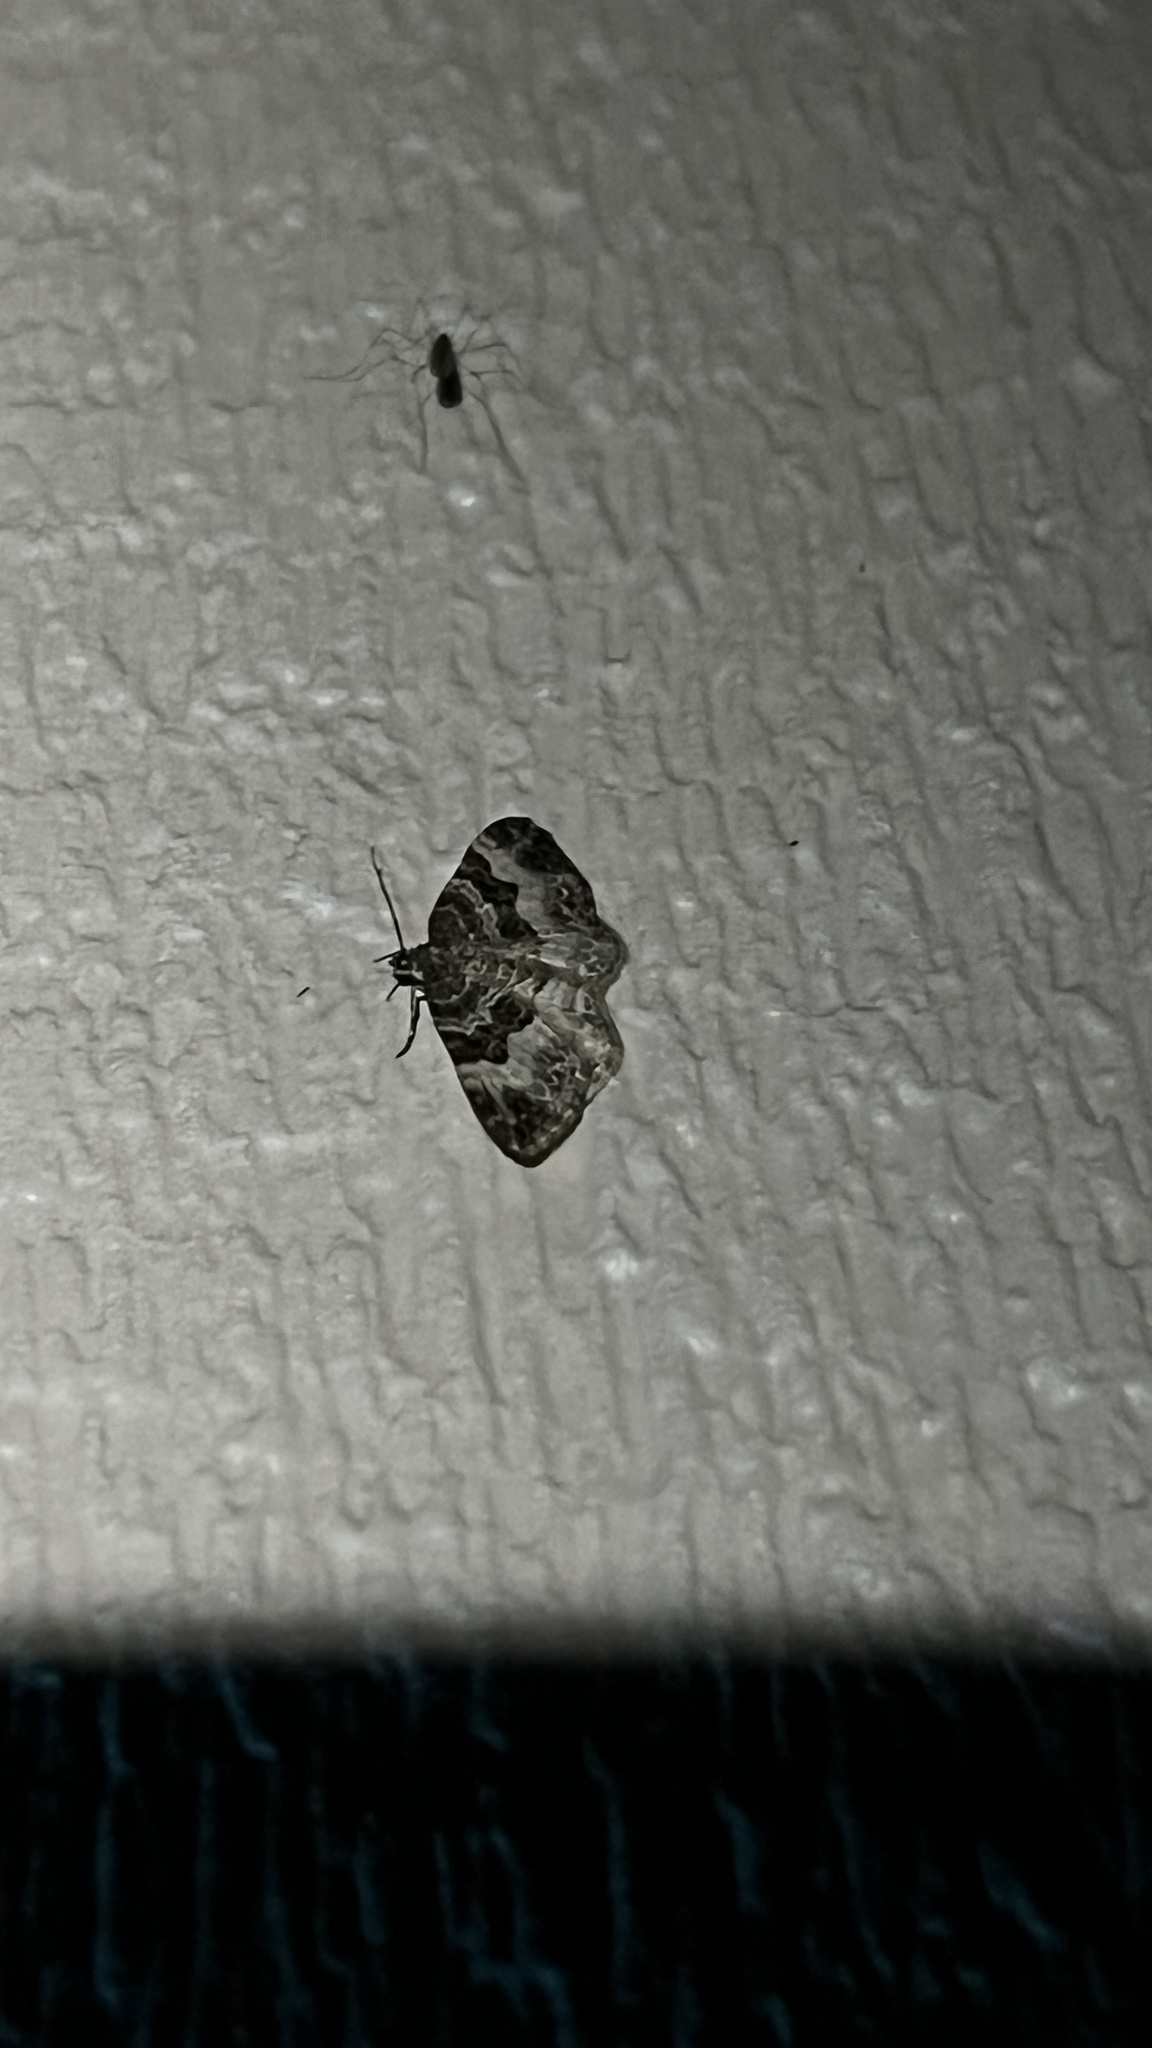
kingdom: Animalia
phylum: Arthropoda
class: Insecta
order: Lepidoptera
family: Geometridae
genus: Epirrhoe
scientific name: Epirrhoe alternata
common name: Common carpet
